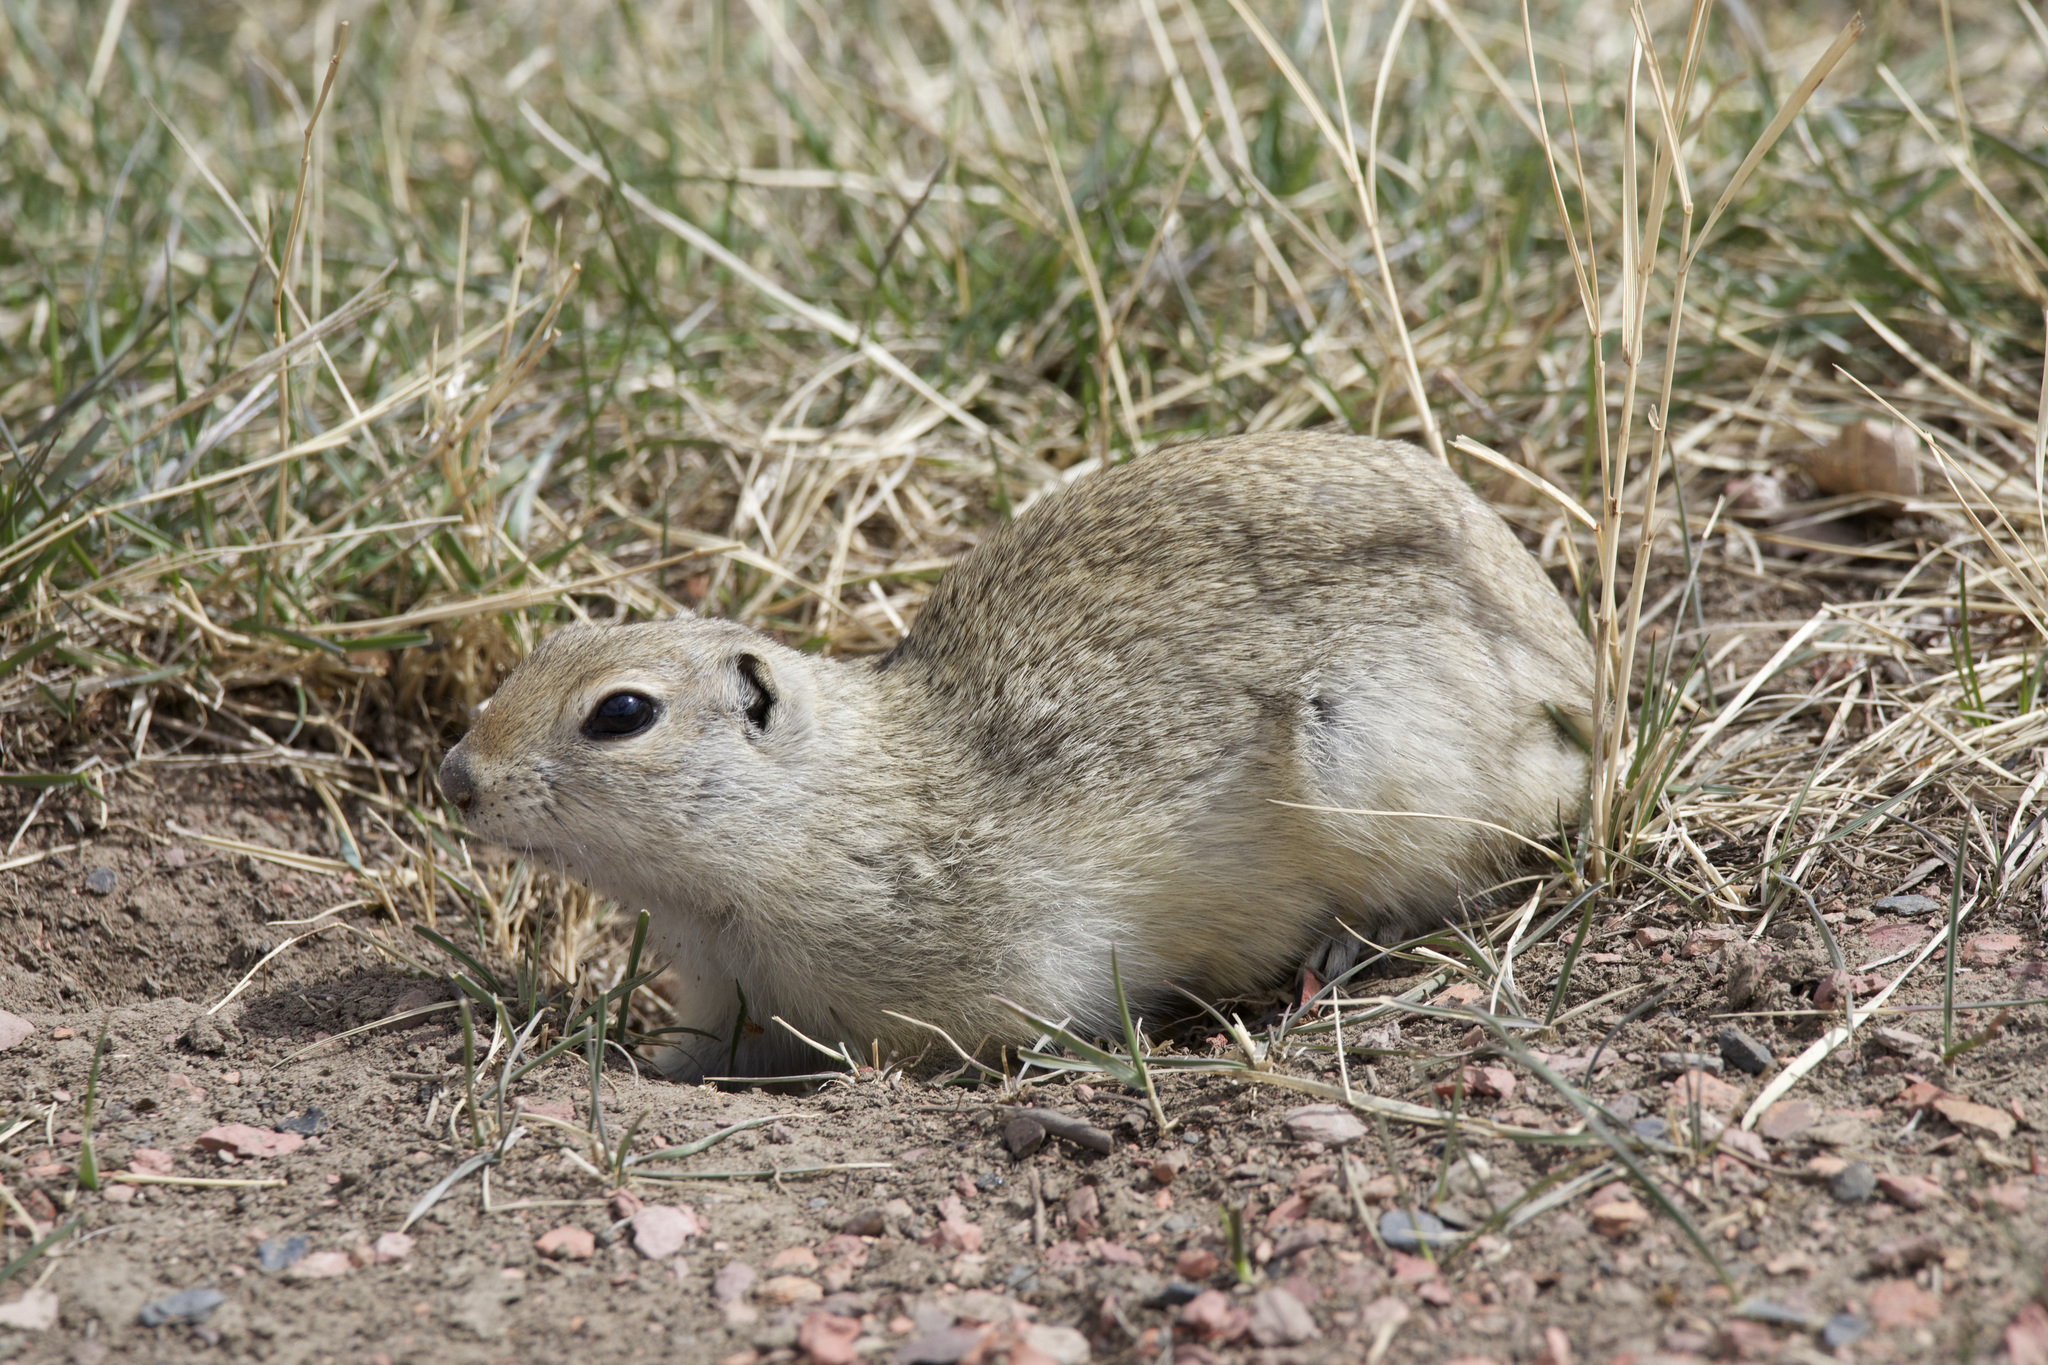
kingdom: Animalia
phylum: Chordata
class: Mammalia
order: Rodentia
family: Sciuridae
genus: Urocitellus
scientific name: Urocitellus richardsonii
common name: Richardson's ground squirrel
